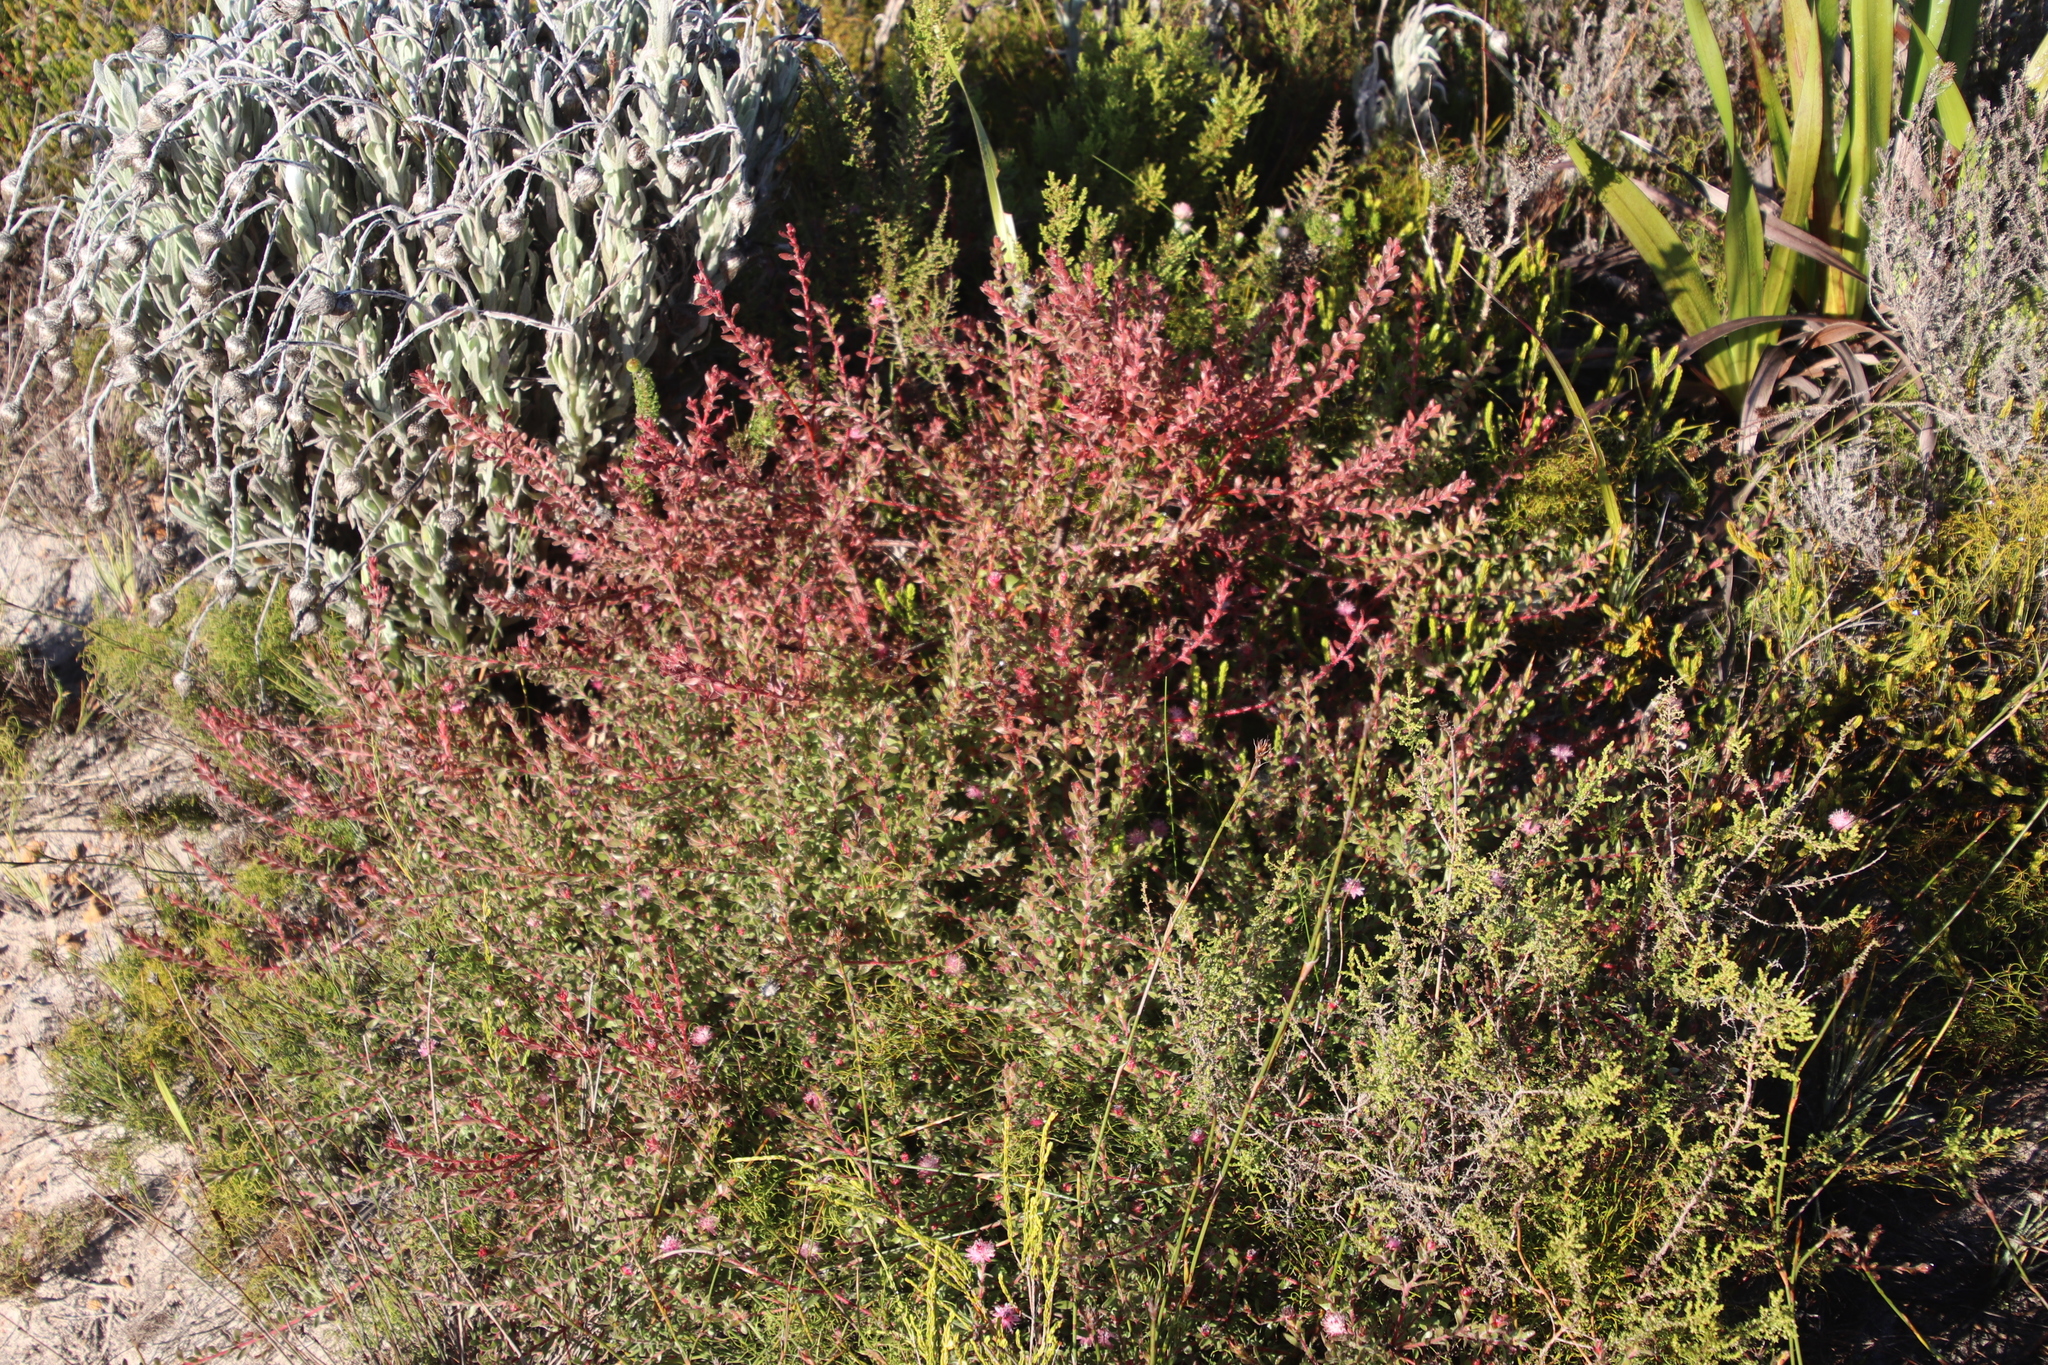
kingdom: Plantae
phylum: Tracheophyta
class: Magnoliopsida
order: Proteales
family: Proteaceae
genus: Diastella
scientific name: Diastella divaricata
